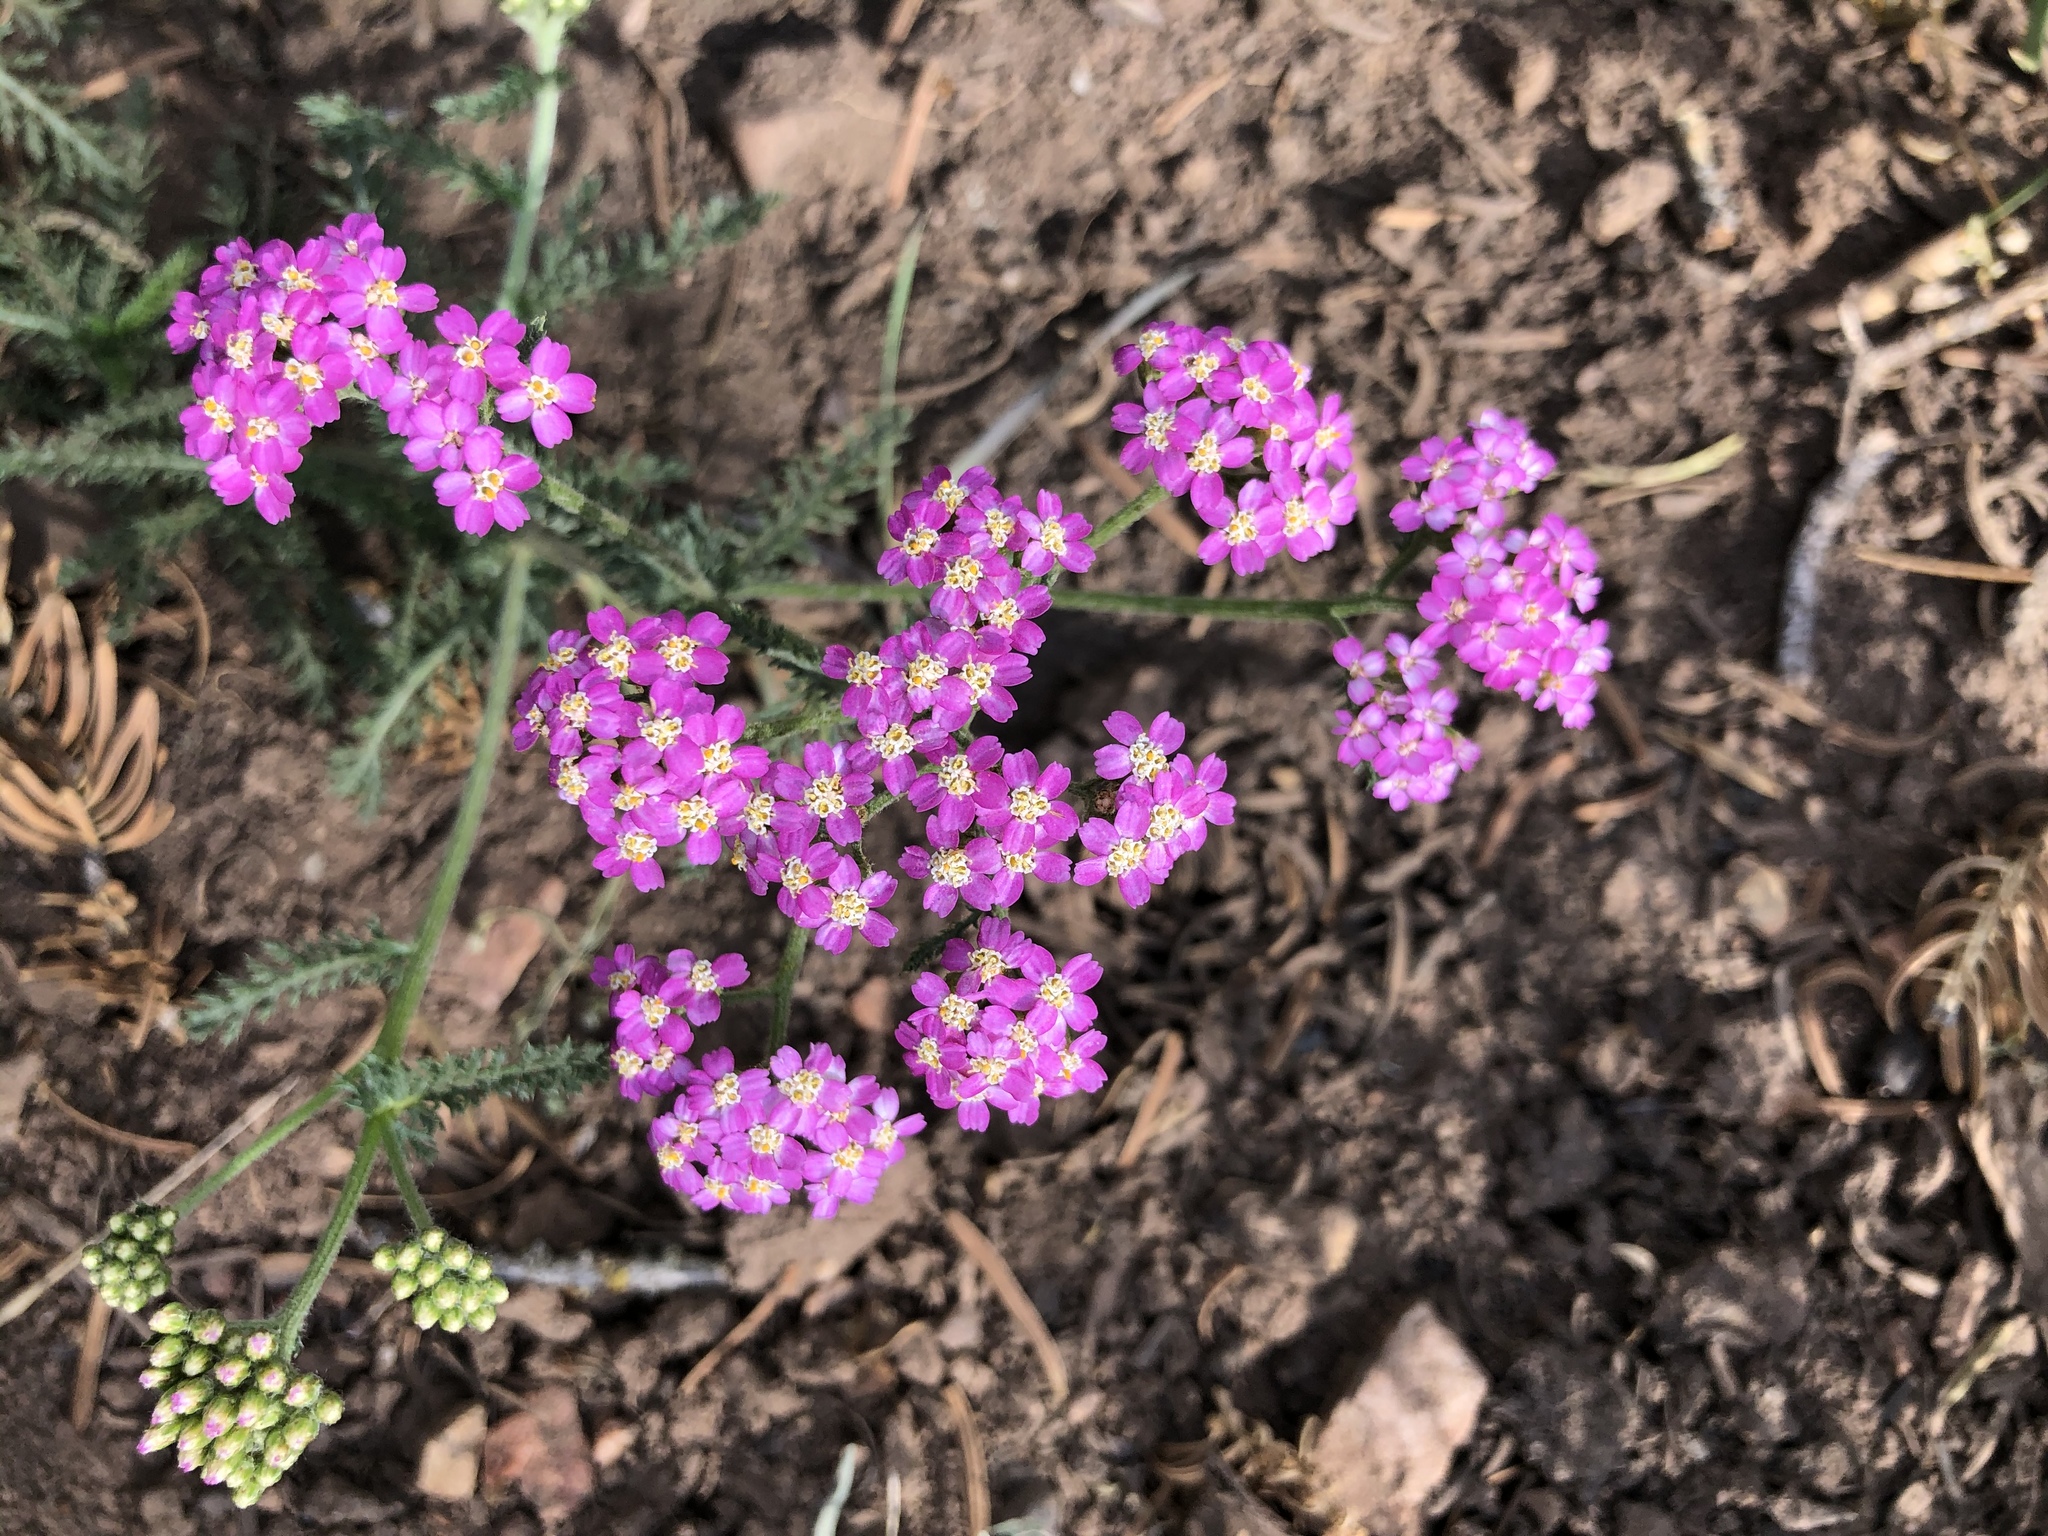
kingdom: Plantae
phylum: Tracheophyta
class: Magnoliopsida
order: Asterales
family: Asteraceae
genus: Achillea
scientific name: Achillea millefolium
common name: Yarrow
